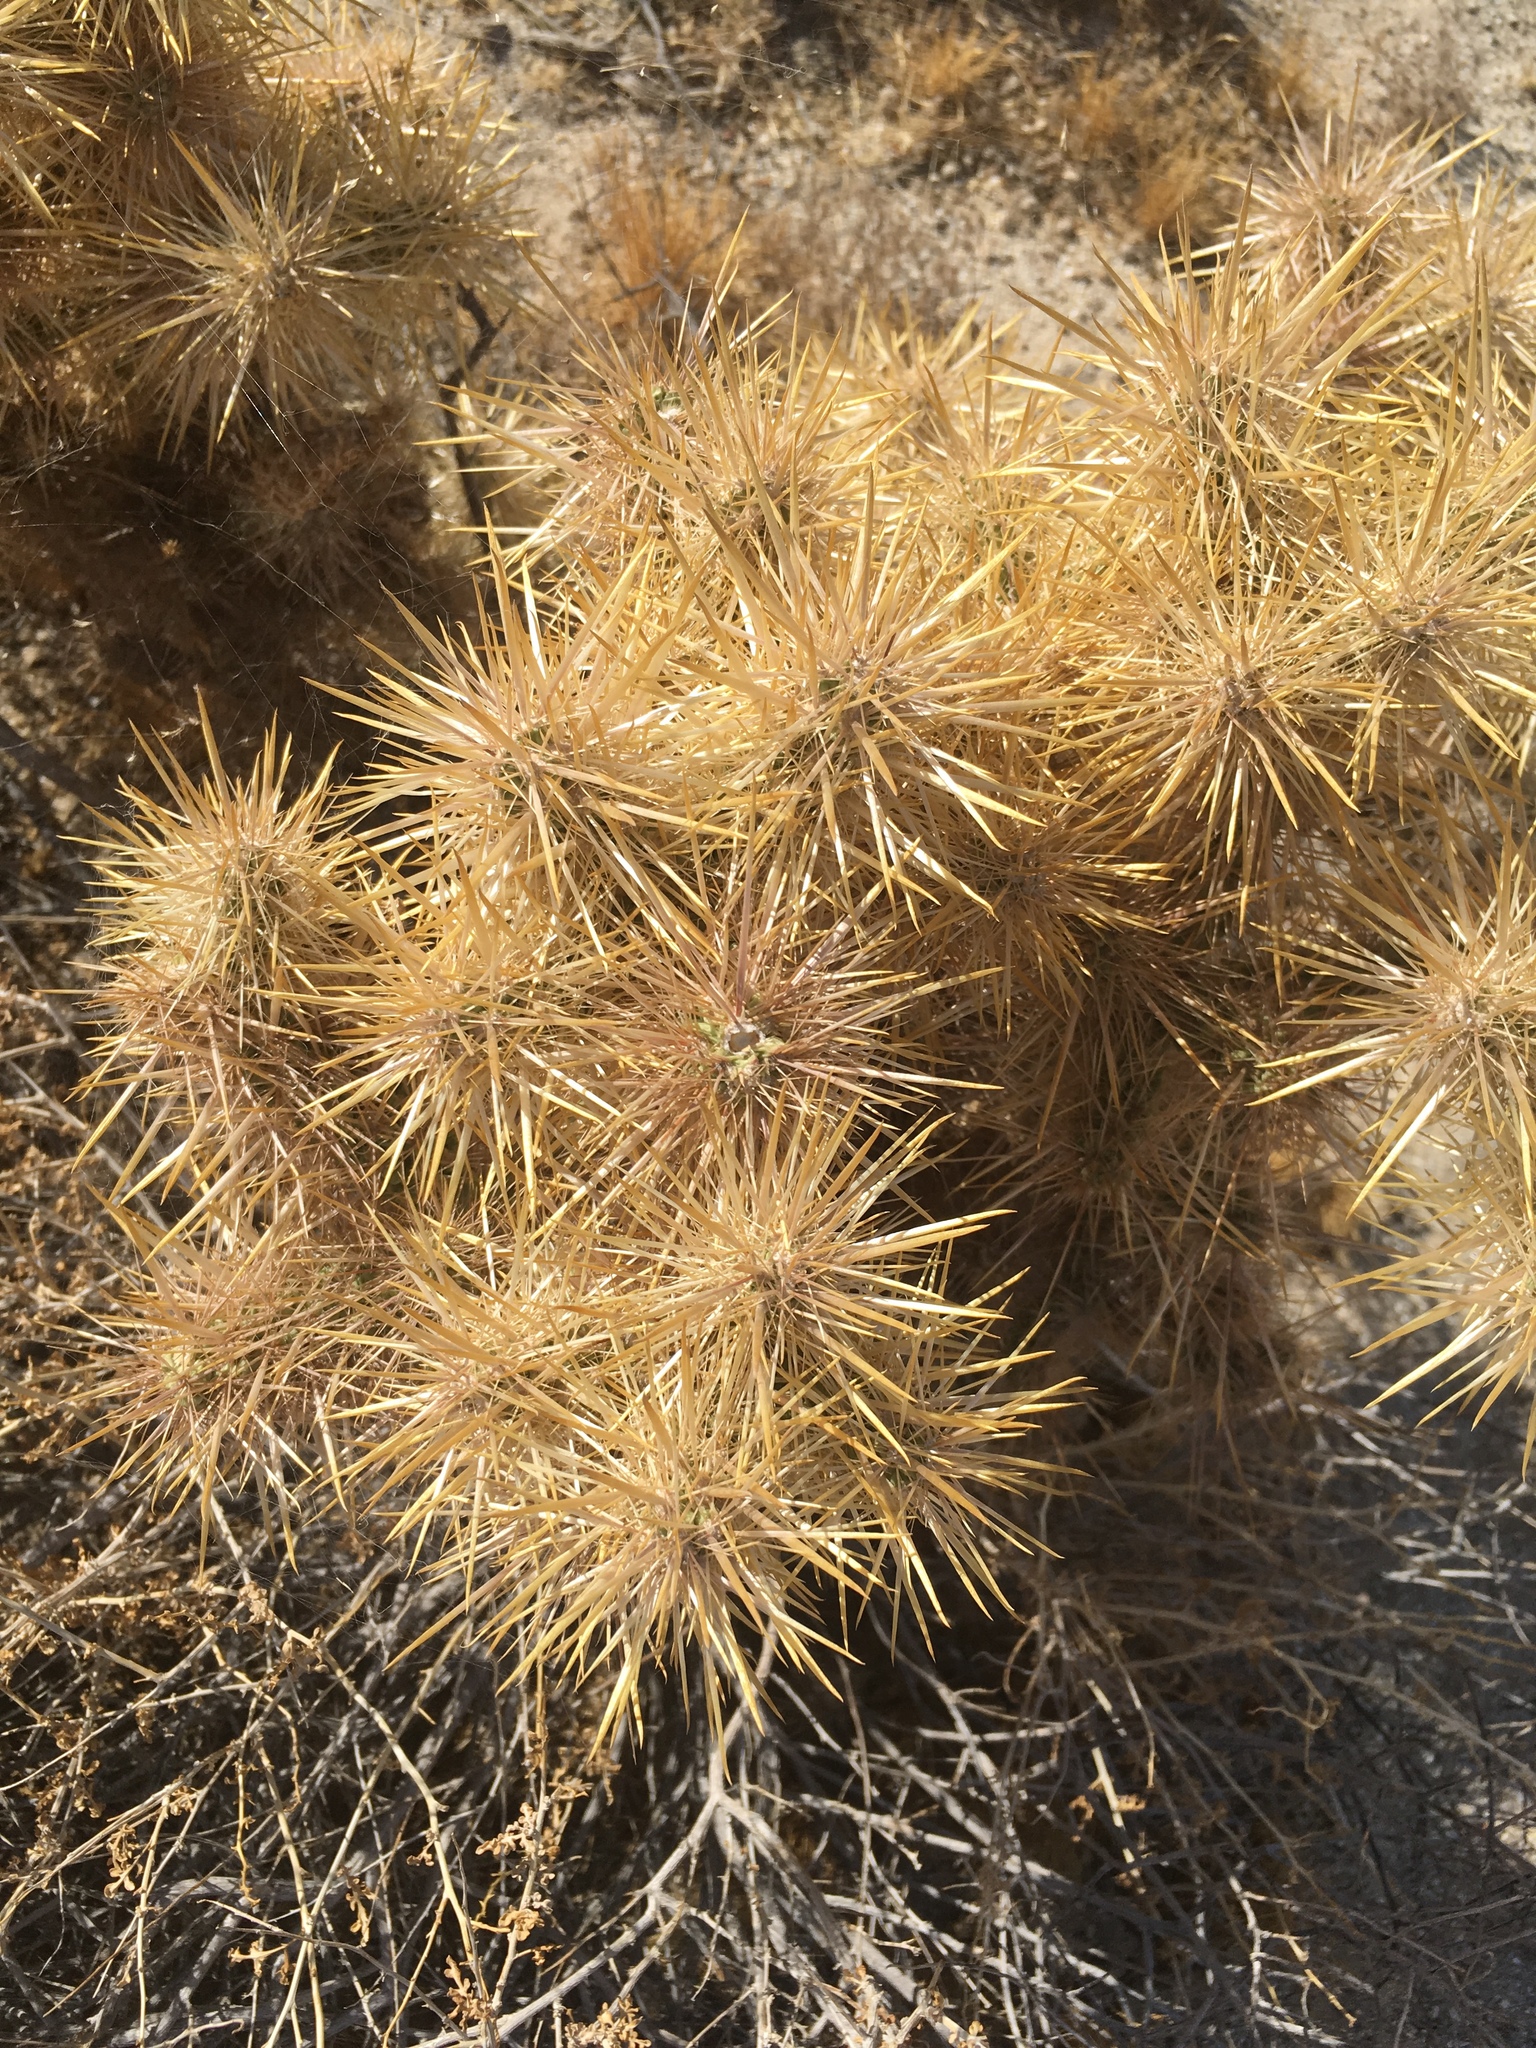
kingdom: Plantae
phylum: Tracheophyta
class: Magnoliopsida
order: Caryophyllales
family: Cactaceae
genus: Cylindropuntia
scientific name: Cylindropuntia echinocarpa
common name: Ground cholla
